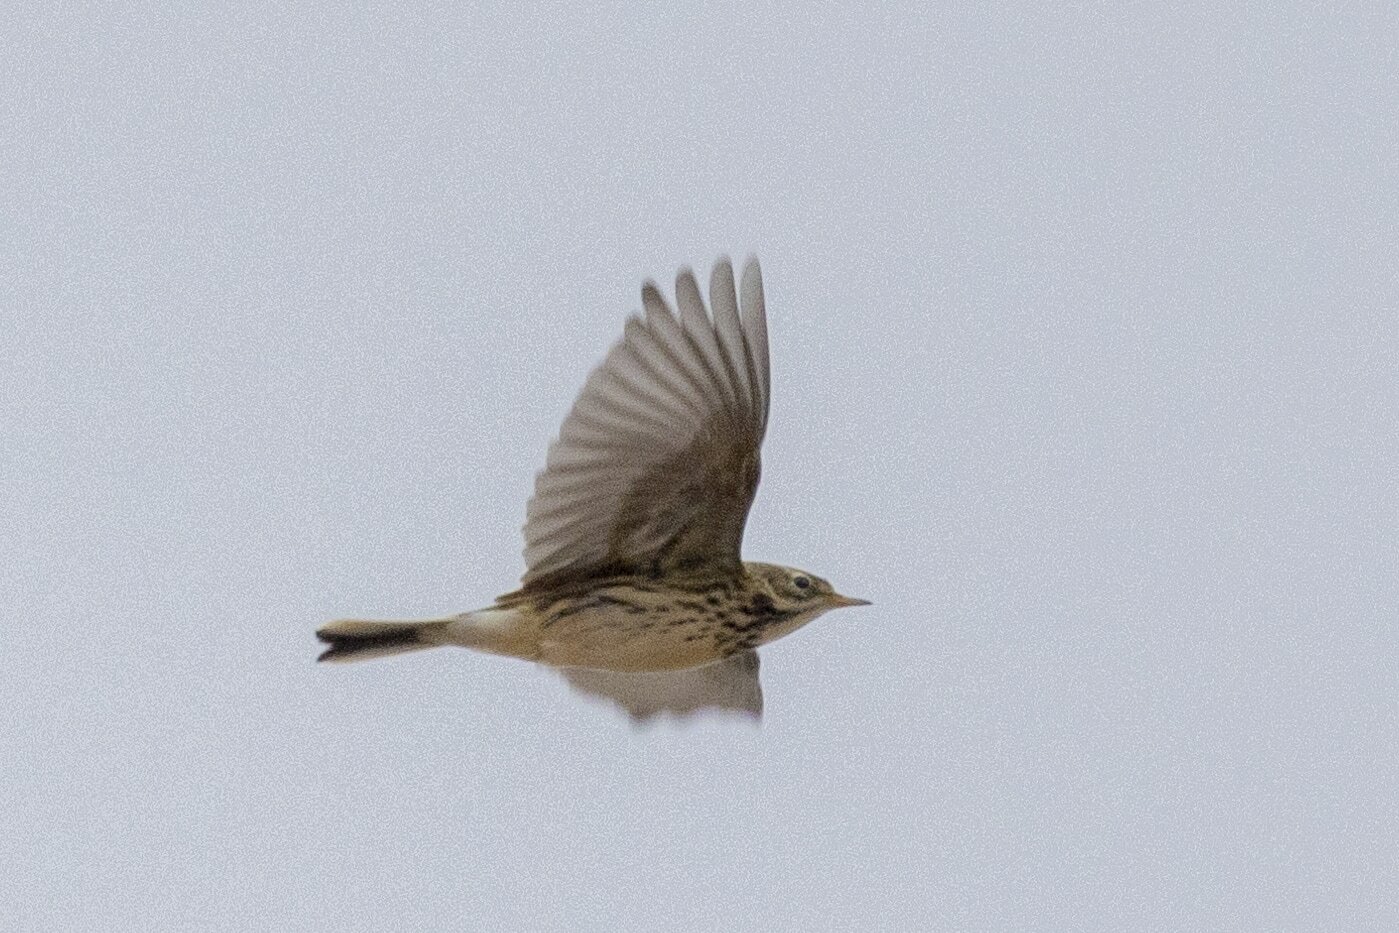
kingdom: Animalia
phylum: Chordata
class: Aves
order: Passeriformes
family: Motacillidae
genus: Anthus
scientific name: Anthus pratensis
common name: Meadow pipit
